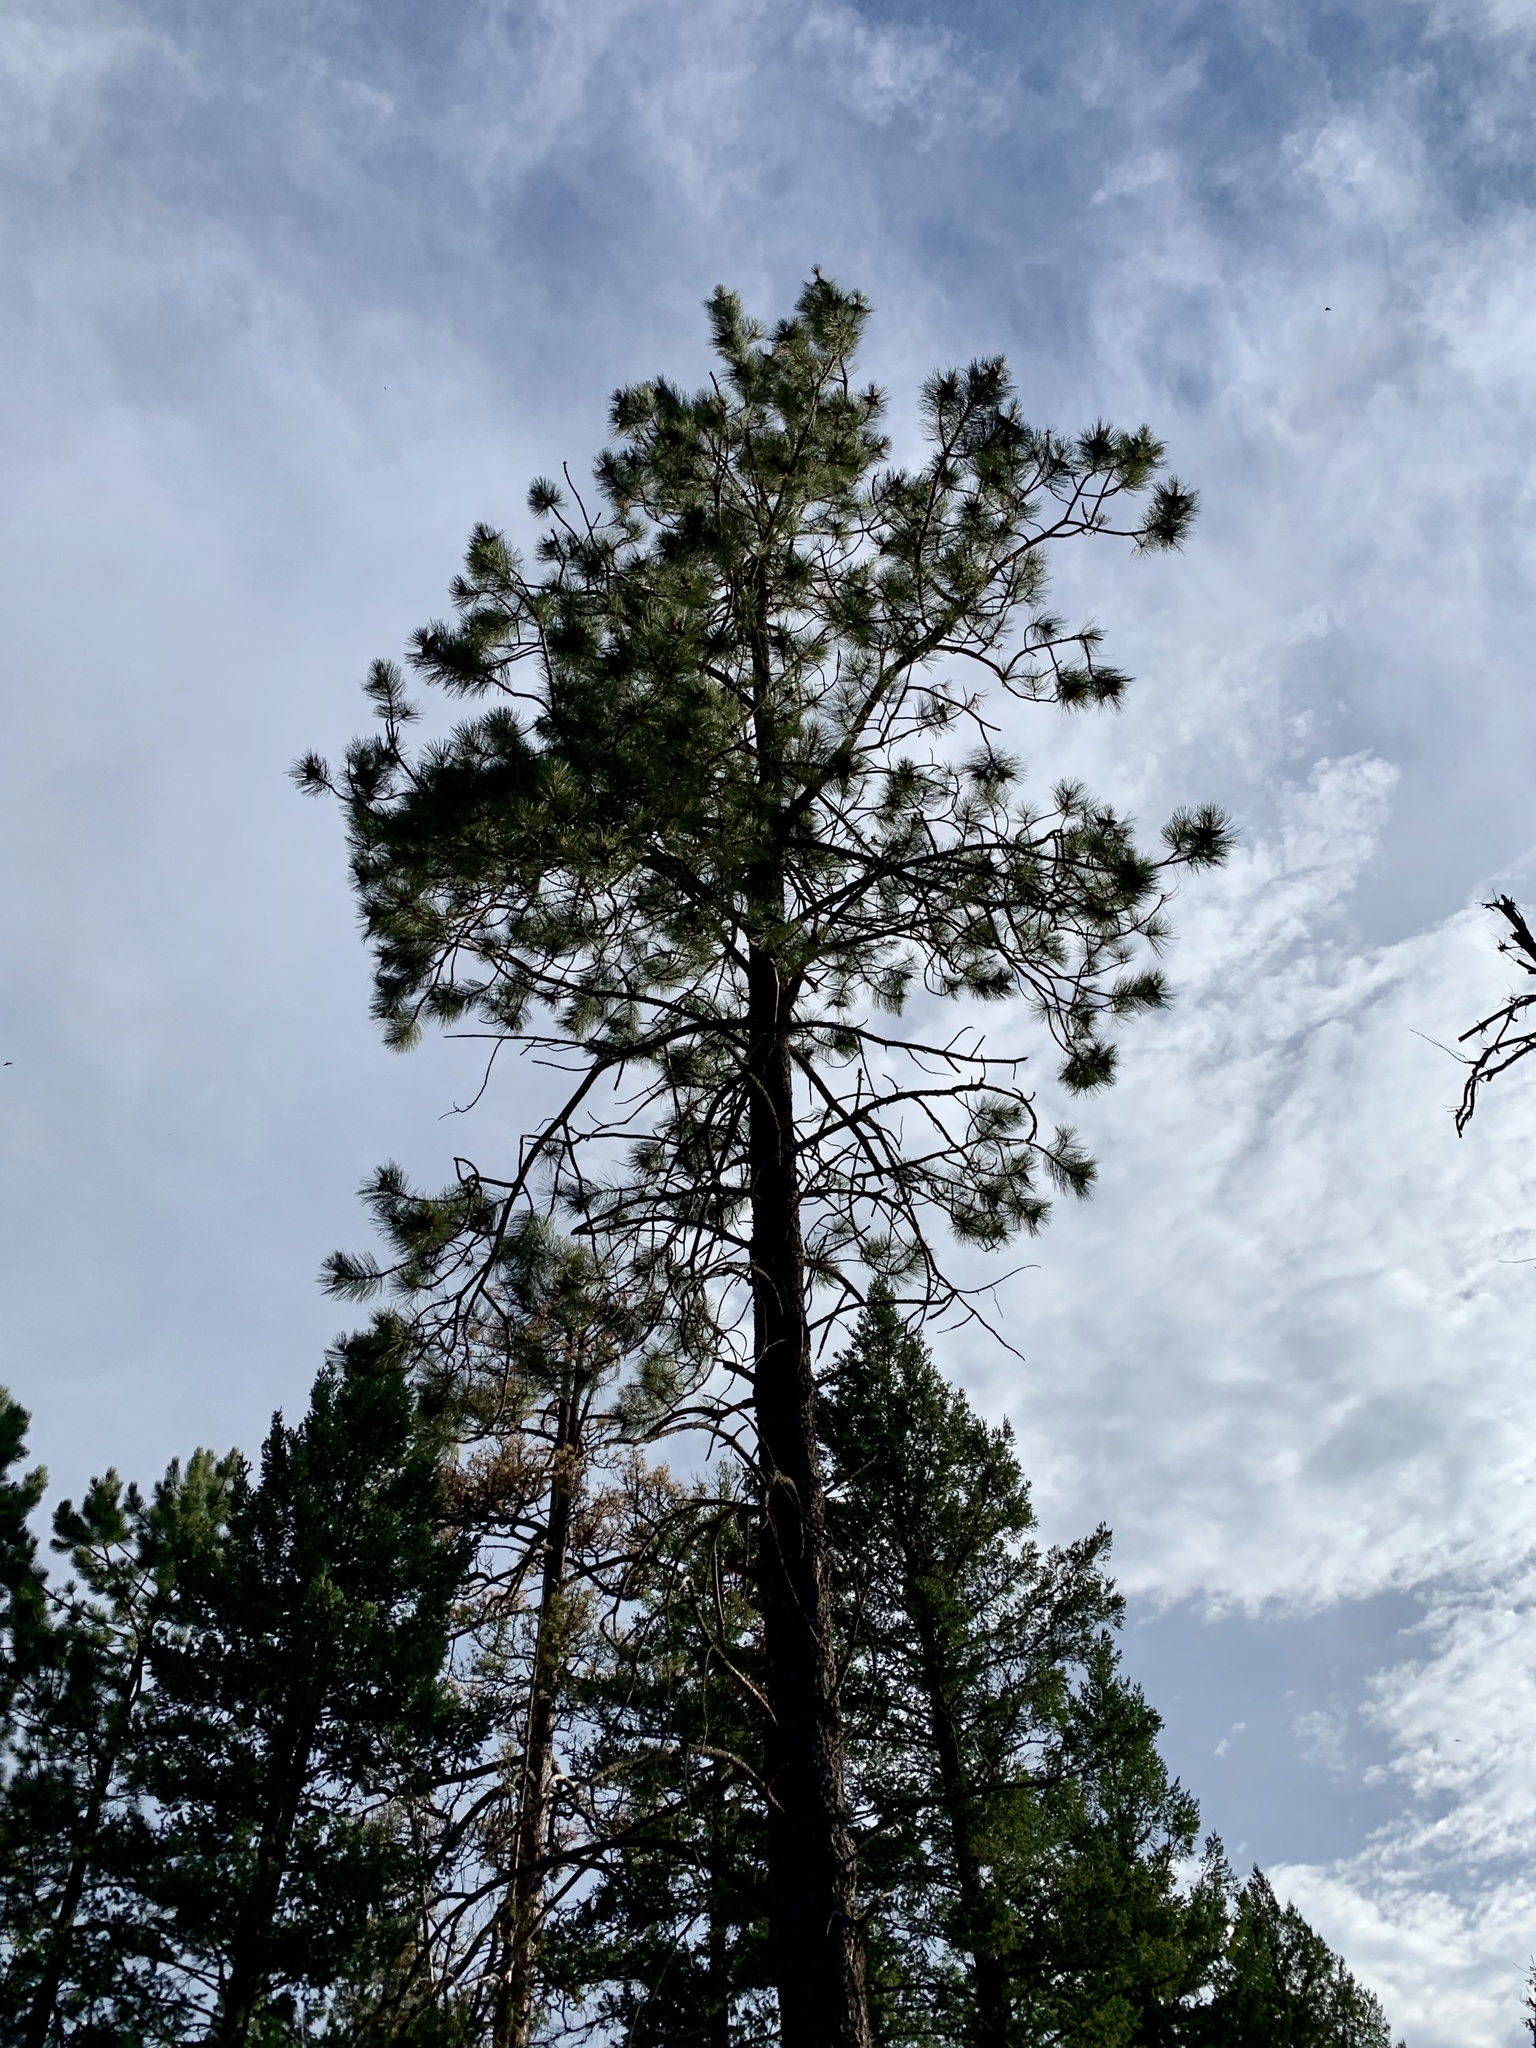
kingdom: Plantae
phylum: Tracheophyta
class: Pinopsida
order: Pinales
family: Pinaceae
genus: Pinus
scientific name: Pinus ponderosa
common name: Western yellow-pine
